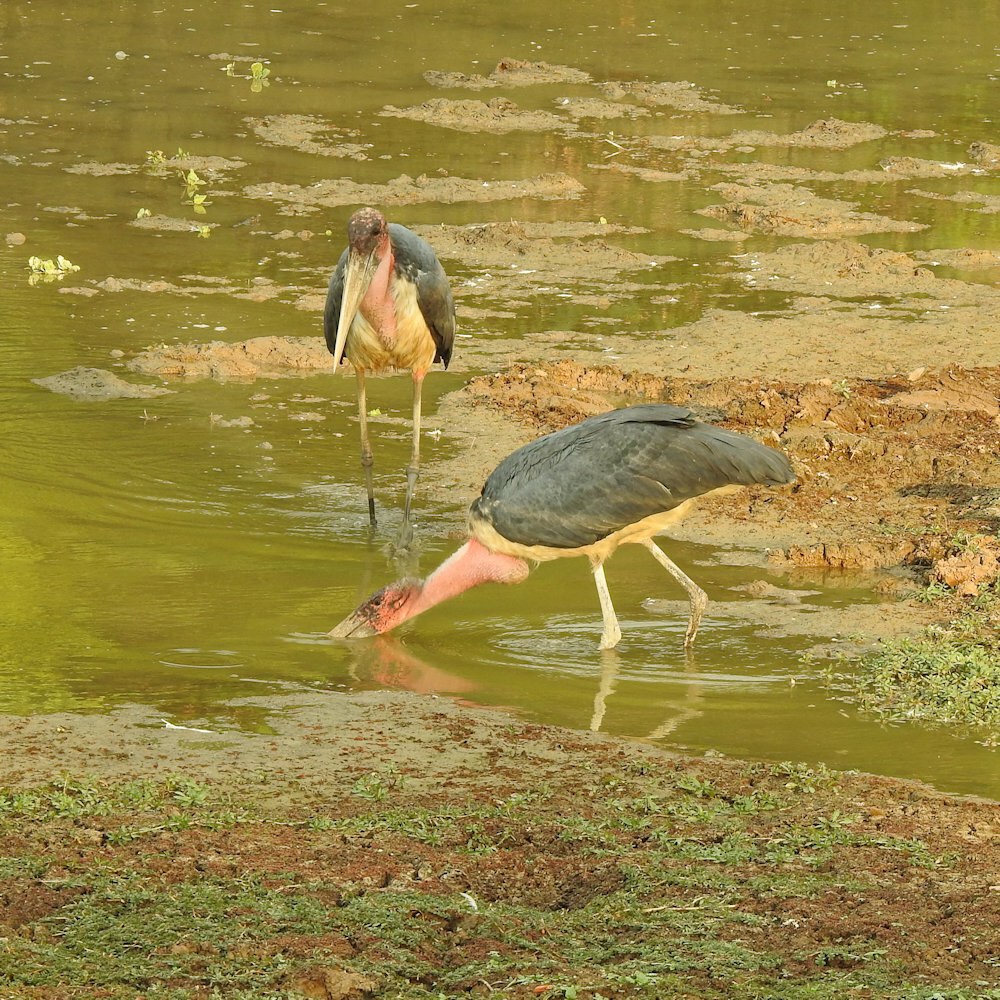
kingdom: Animalia
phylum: Chordata
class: Aves
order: Ciconiiformes
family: Ciconiidae
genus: Leptoptilos
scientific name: Leptoptilos crumenifer
